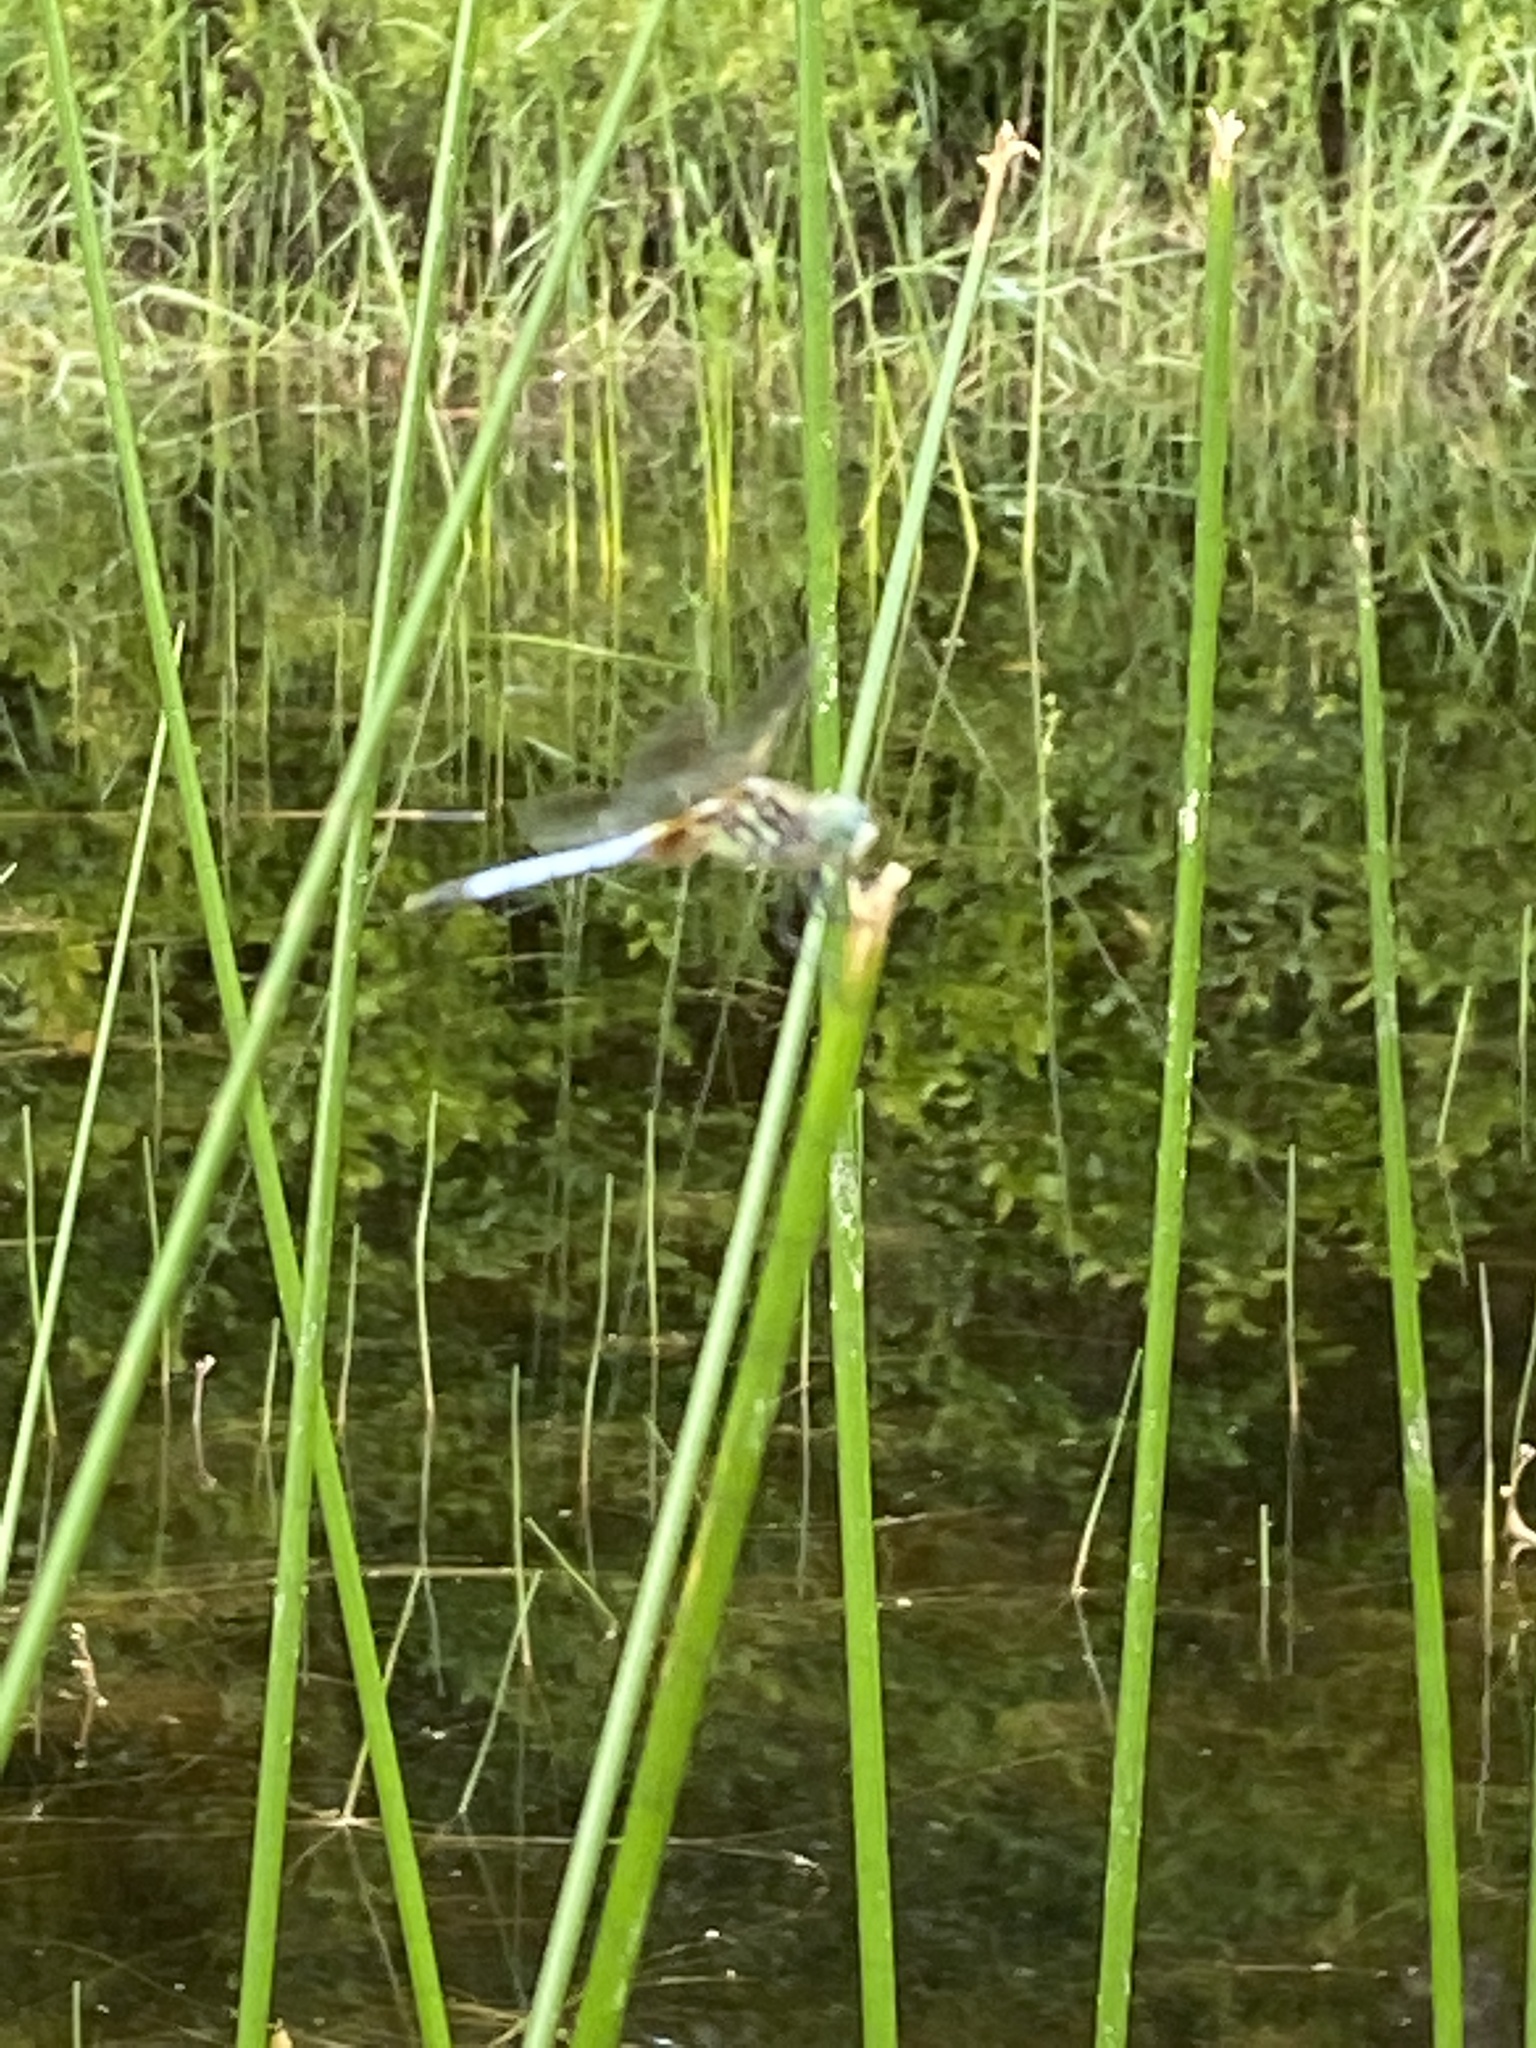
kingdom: Animalia
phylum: Arthropoda
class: Insecta
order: Odonata
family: Libellulidae
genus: Pachydiplax
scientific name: Pachydiplax longipennis
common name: Blue dasher
